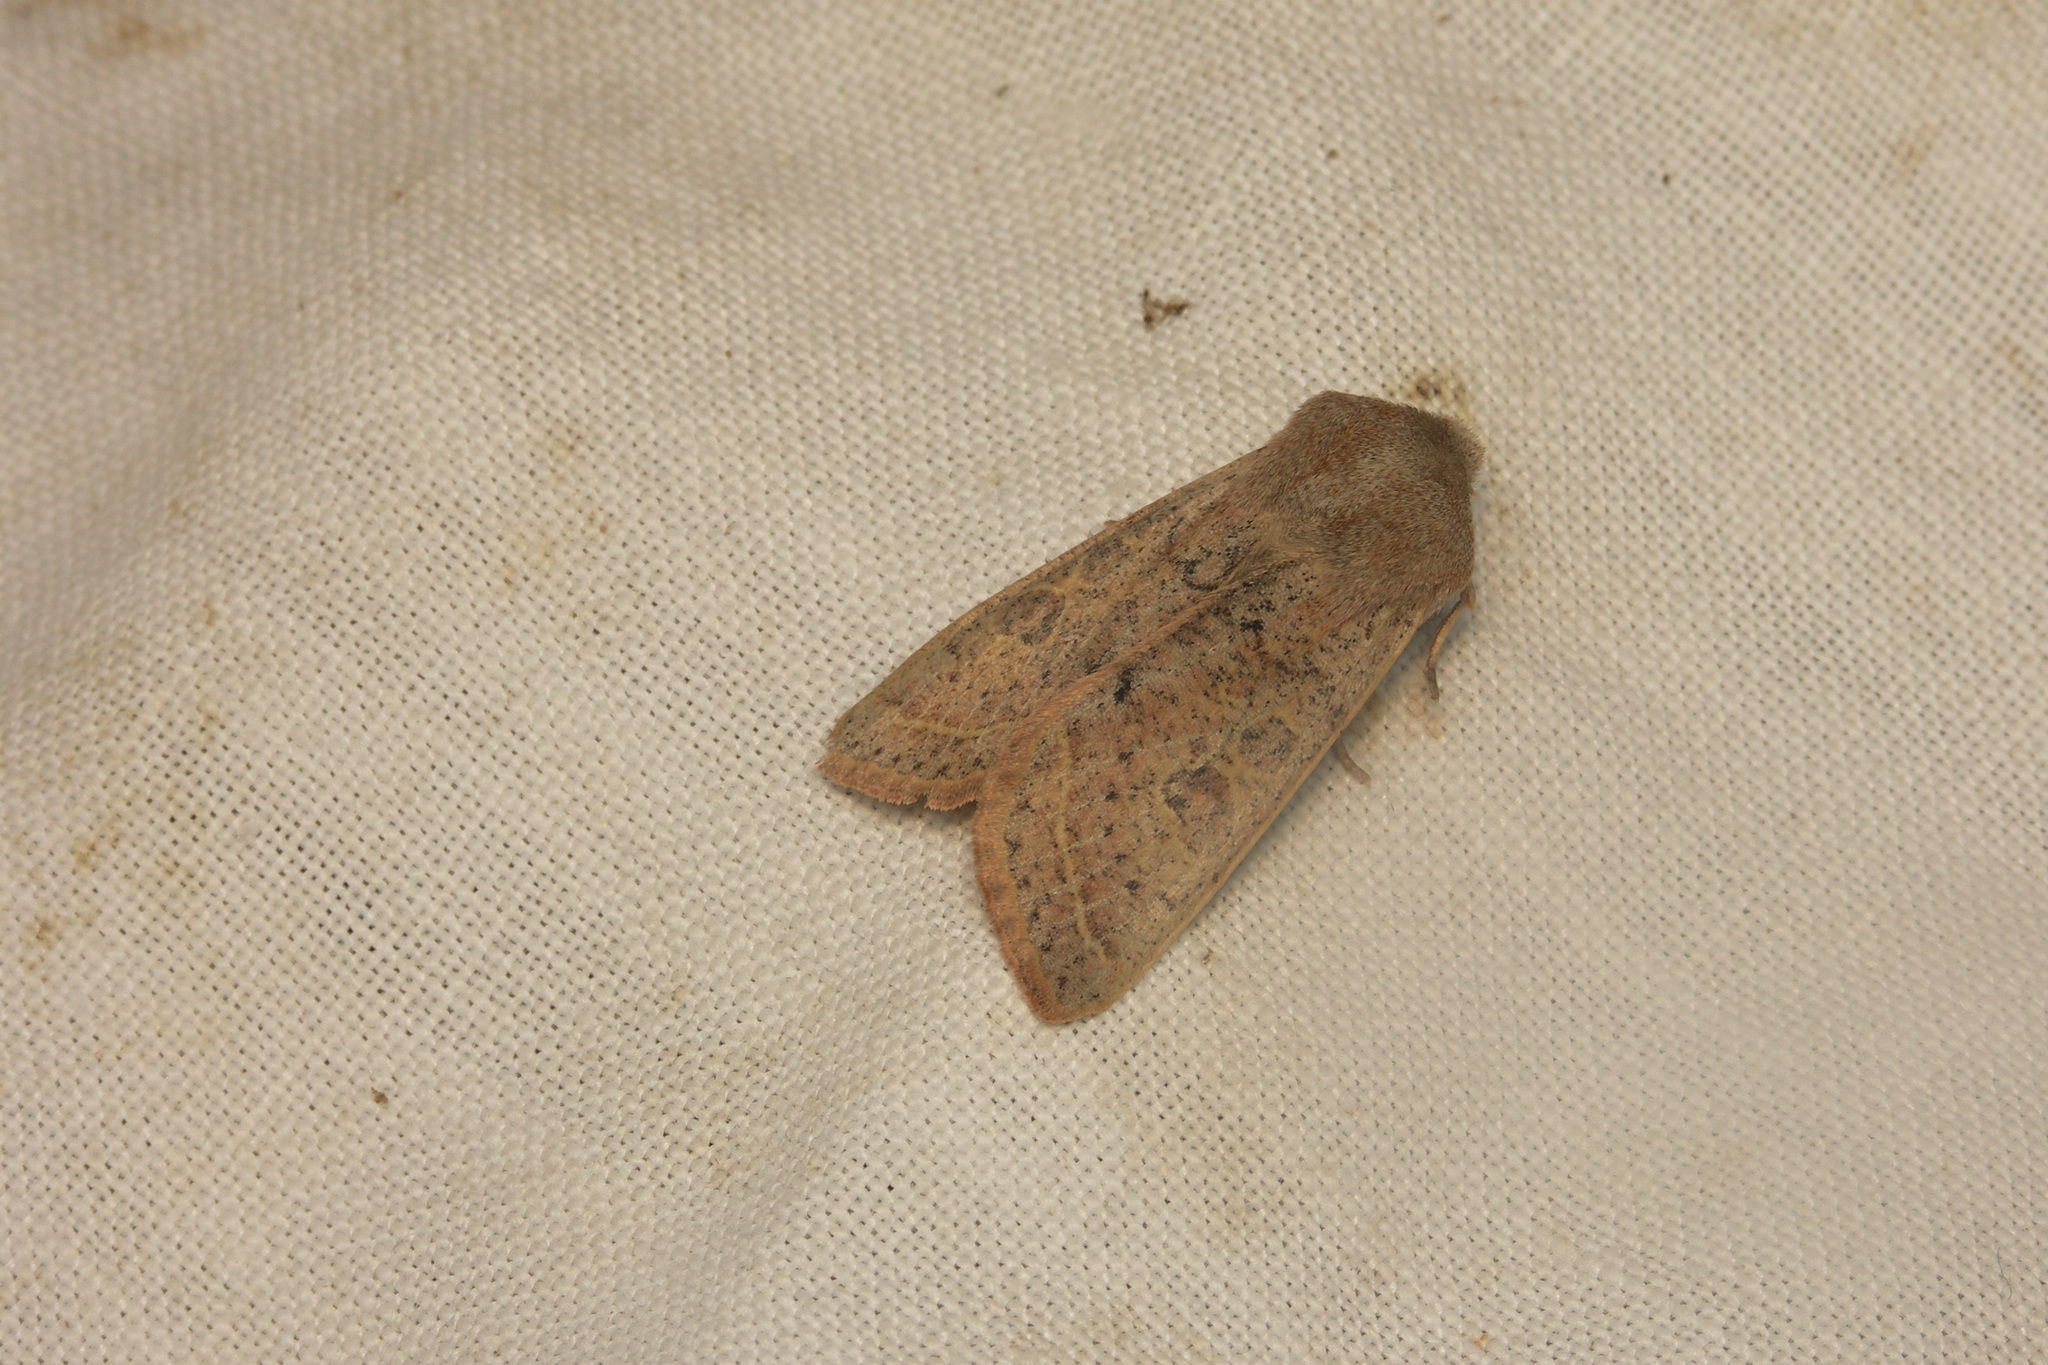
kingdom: Animalia
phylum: Arthropoda
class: Insecta
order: Lepidoptera
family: Noctuidae
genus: Orthosia
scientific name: Orthosia gracilis
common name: Powdered quaker
